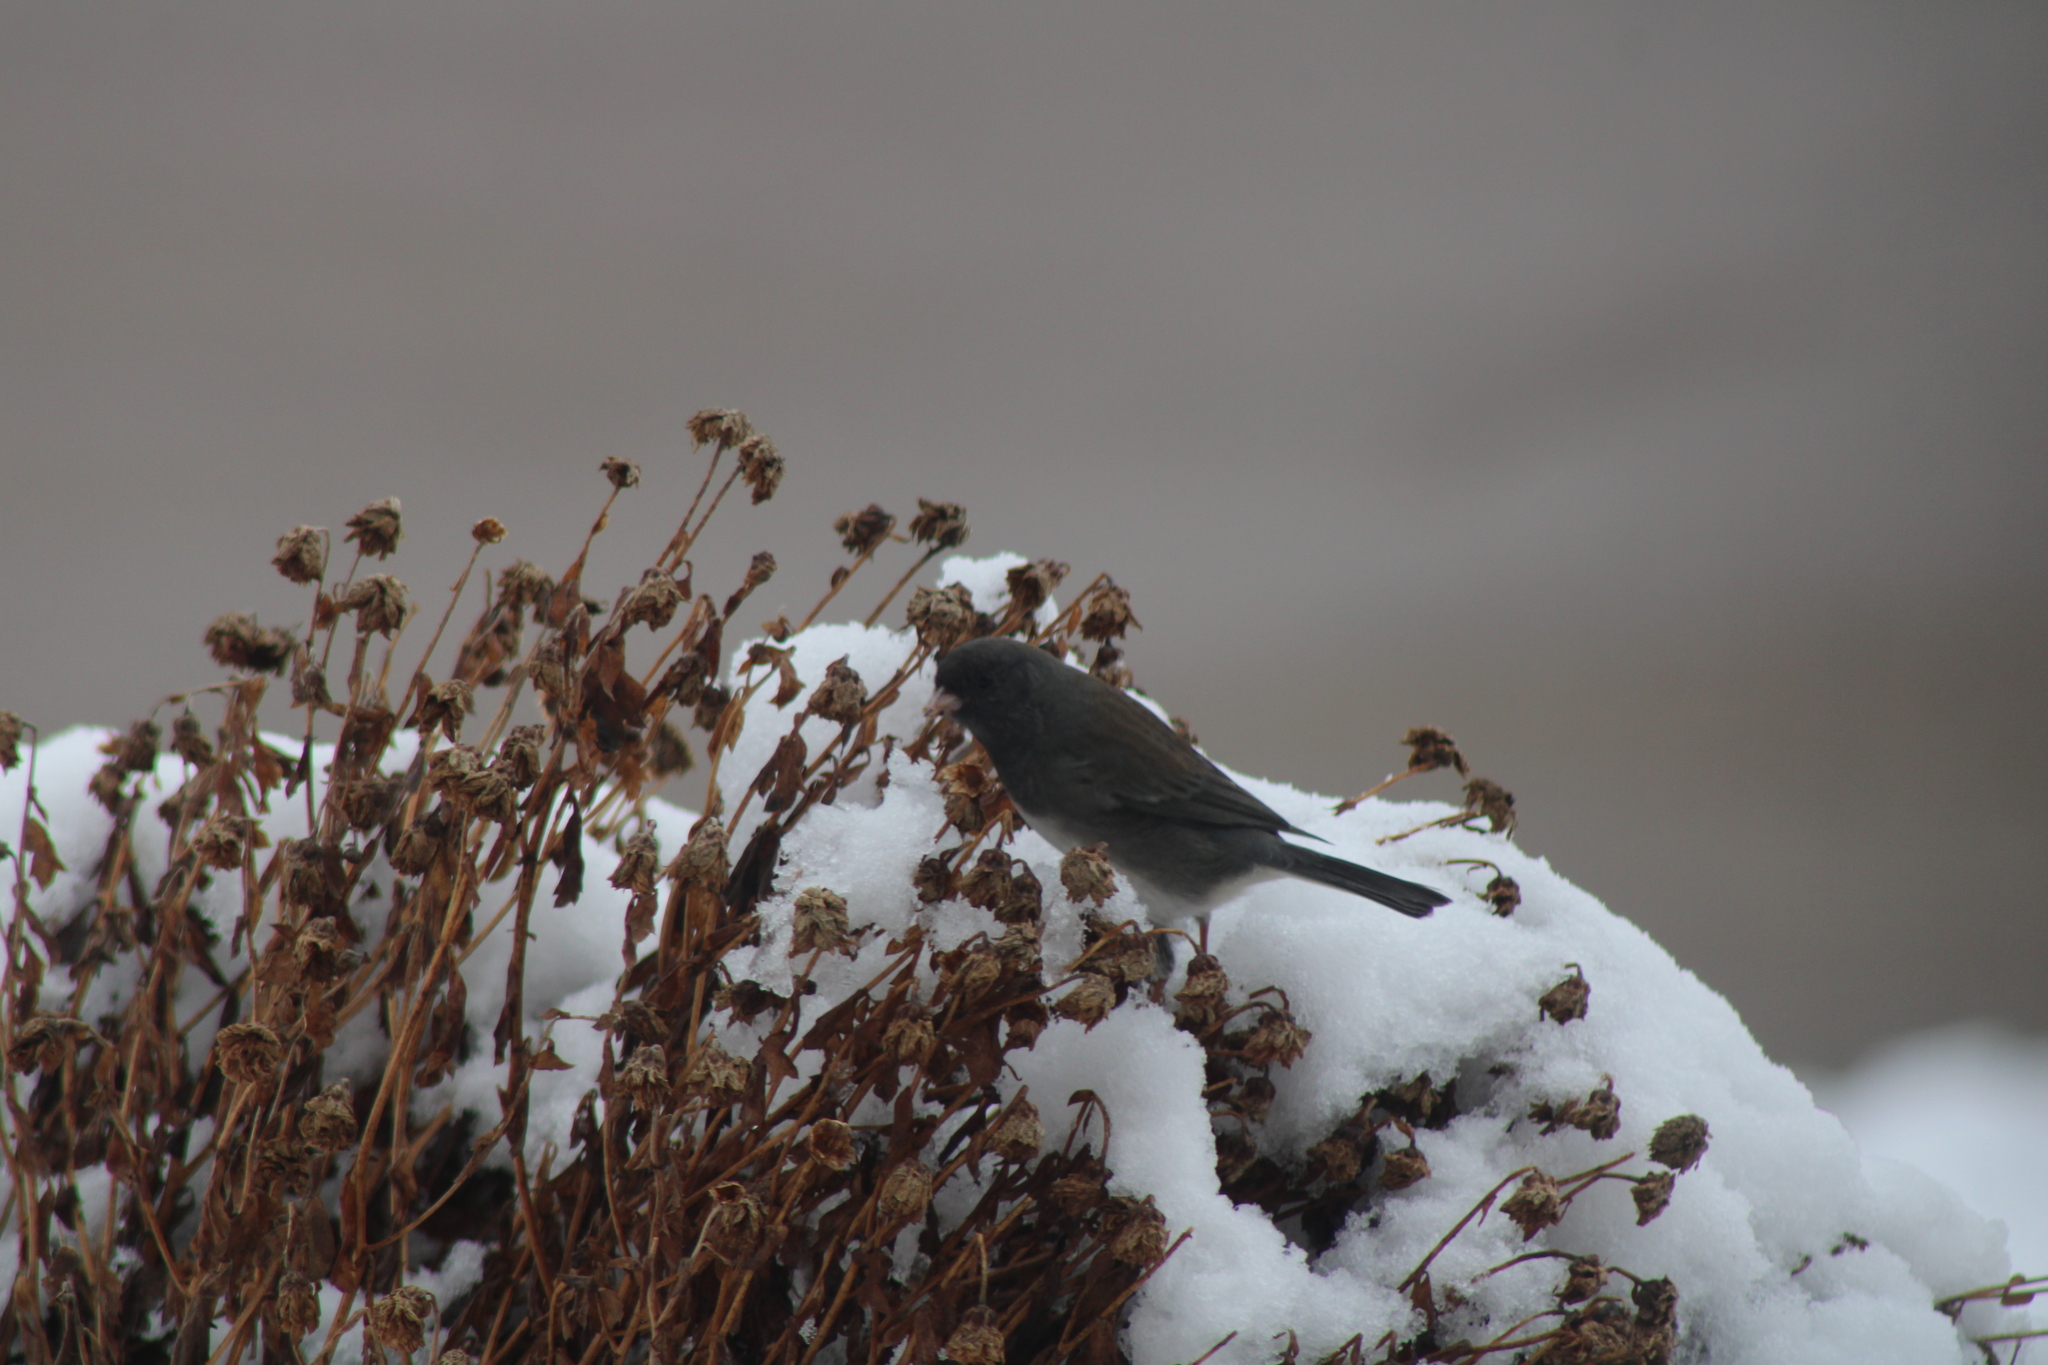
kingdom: Animalia
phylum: Chordata
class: Aves
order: Passeriformes
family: Passerellidae
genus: Junco
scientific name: Junco hyemalis
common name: Dark-eyed junco
